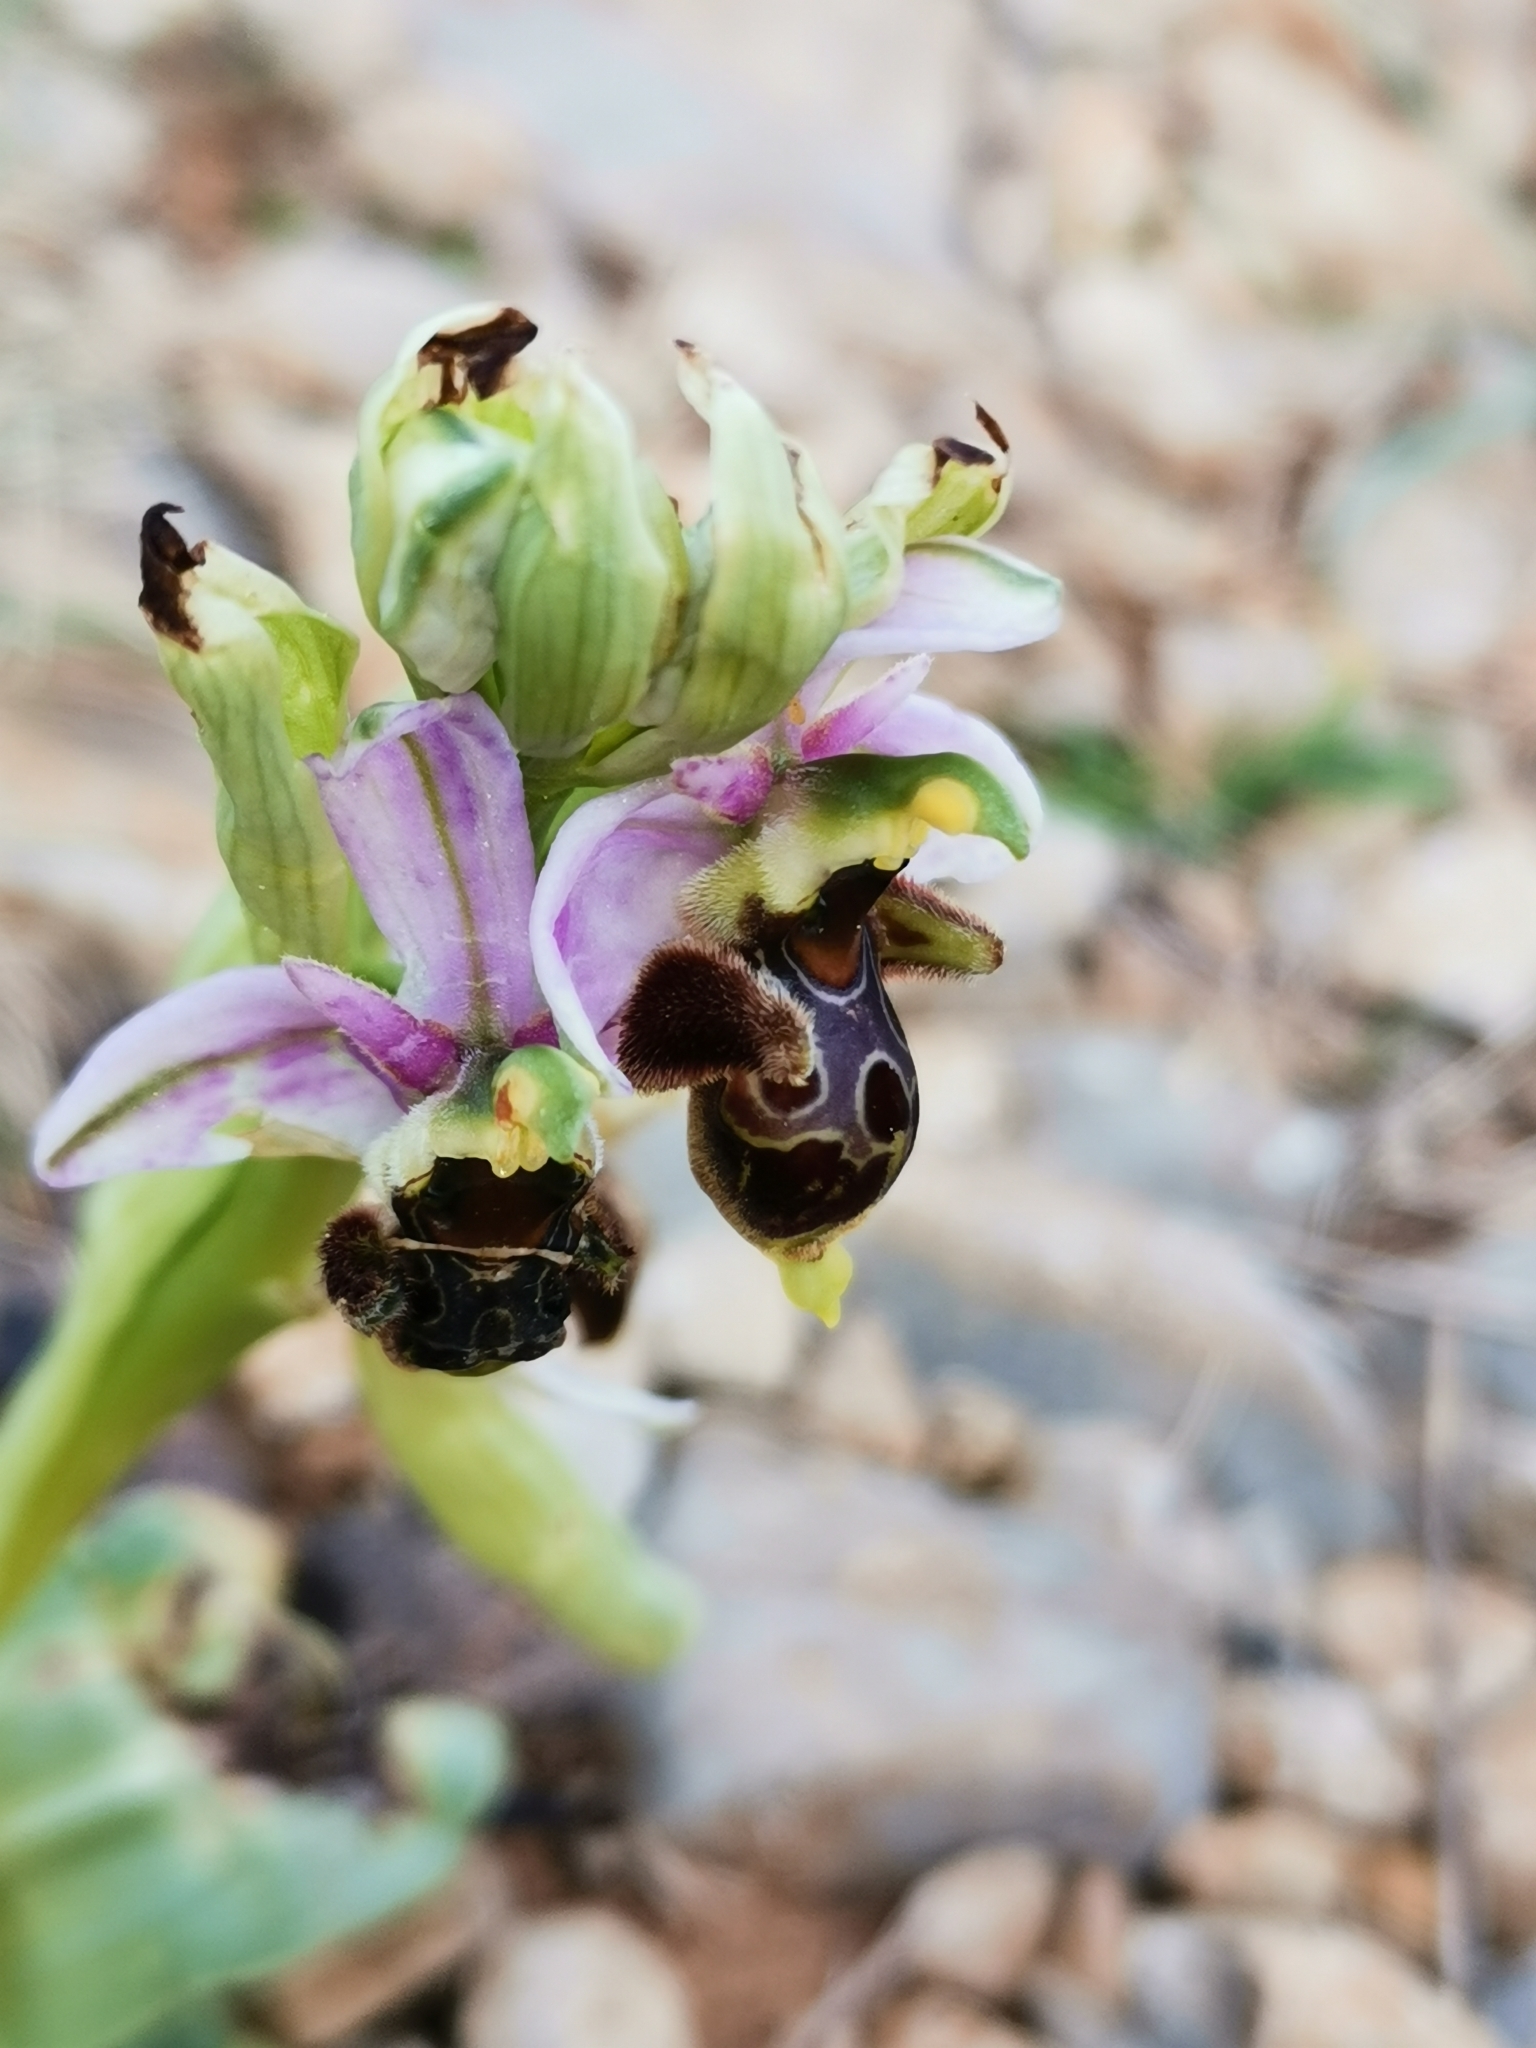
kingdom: Plantae
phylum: Tracheophyta
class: Liliopsida
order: Asparagales
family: Orchidaceae
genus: Ophrys
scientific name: Ophrys scolopax
